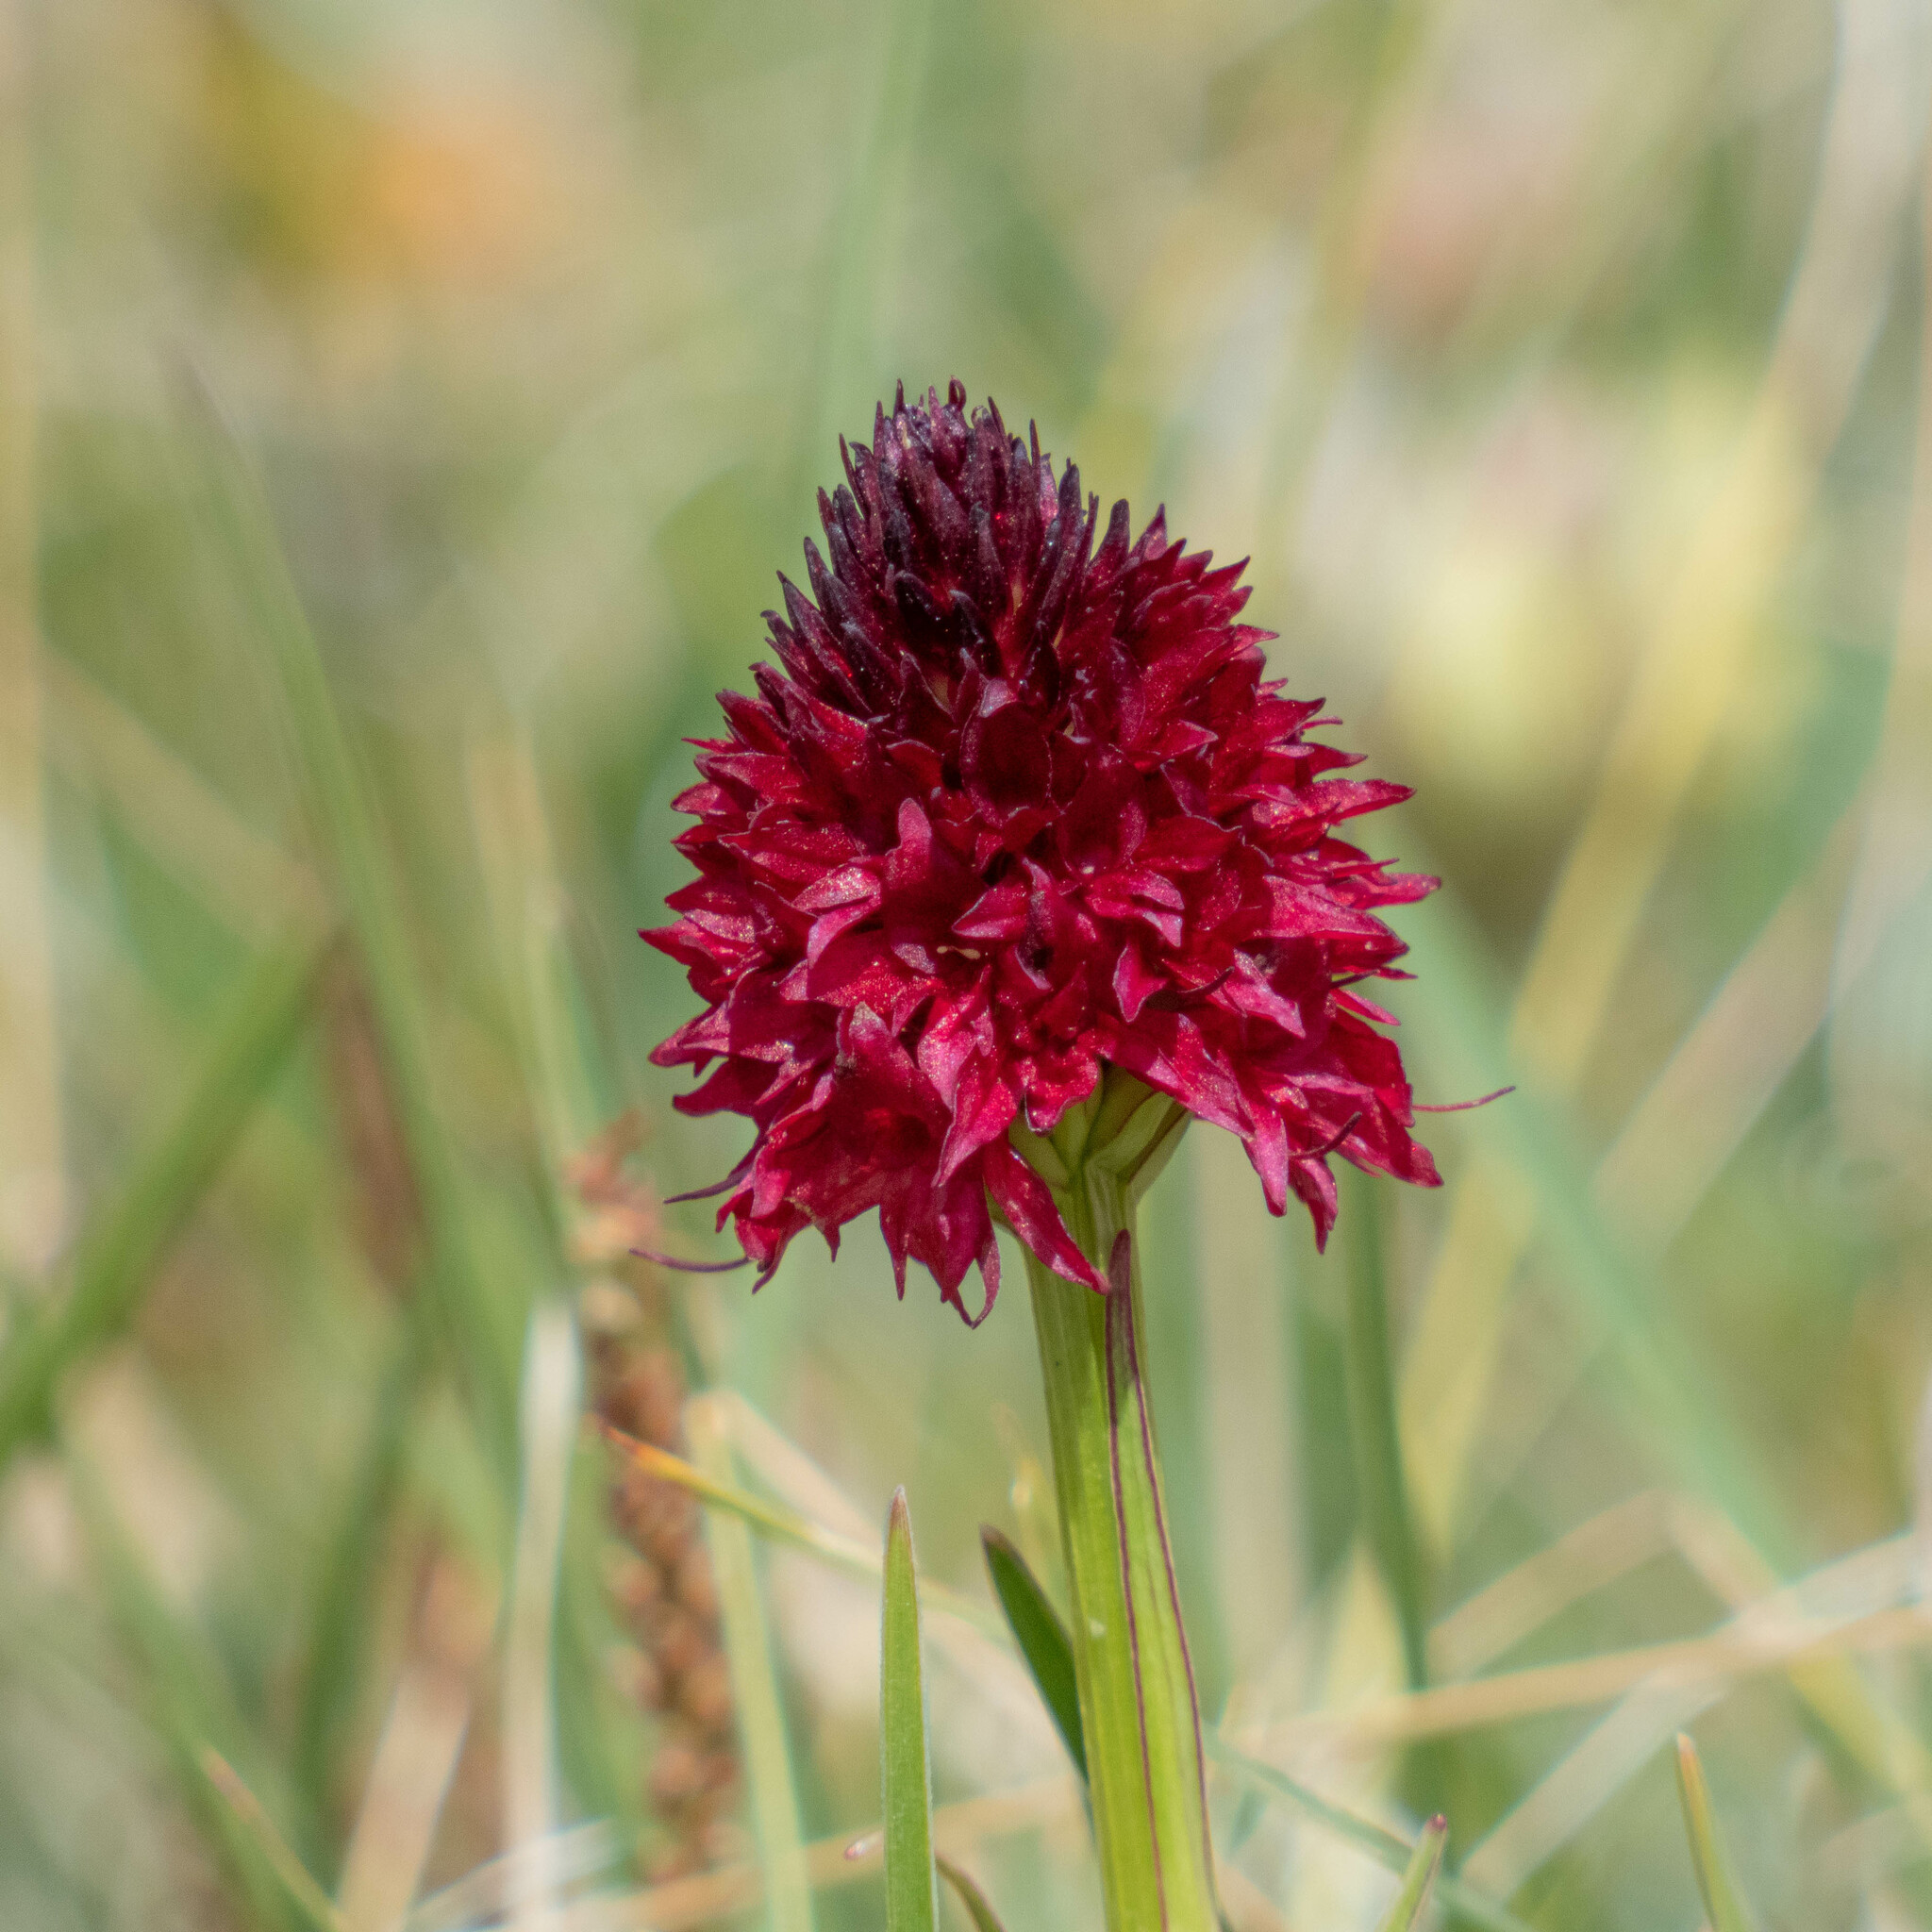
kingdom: Plantae
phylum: Tracheophyta
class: Liliopsida
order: Asparagales
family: Orchidaceae
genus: Gymnadenia
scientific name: Gymnadenia rhellicani
